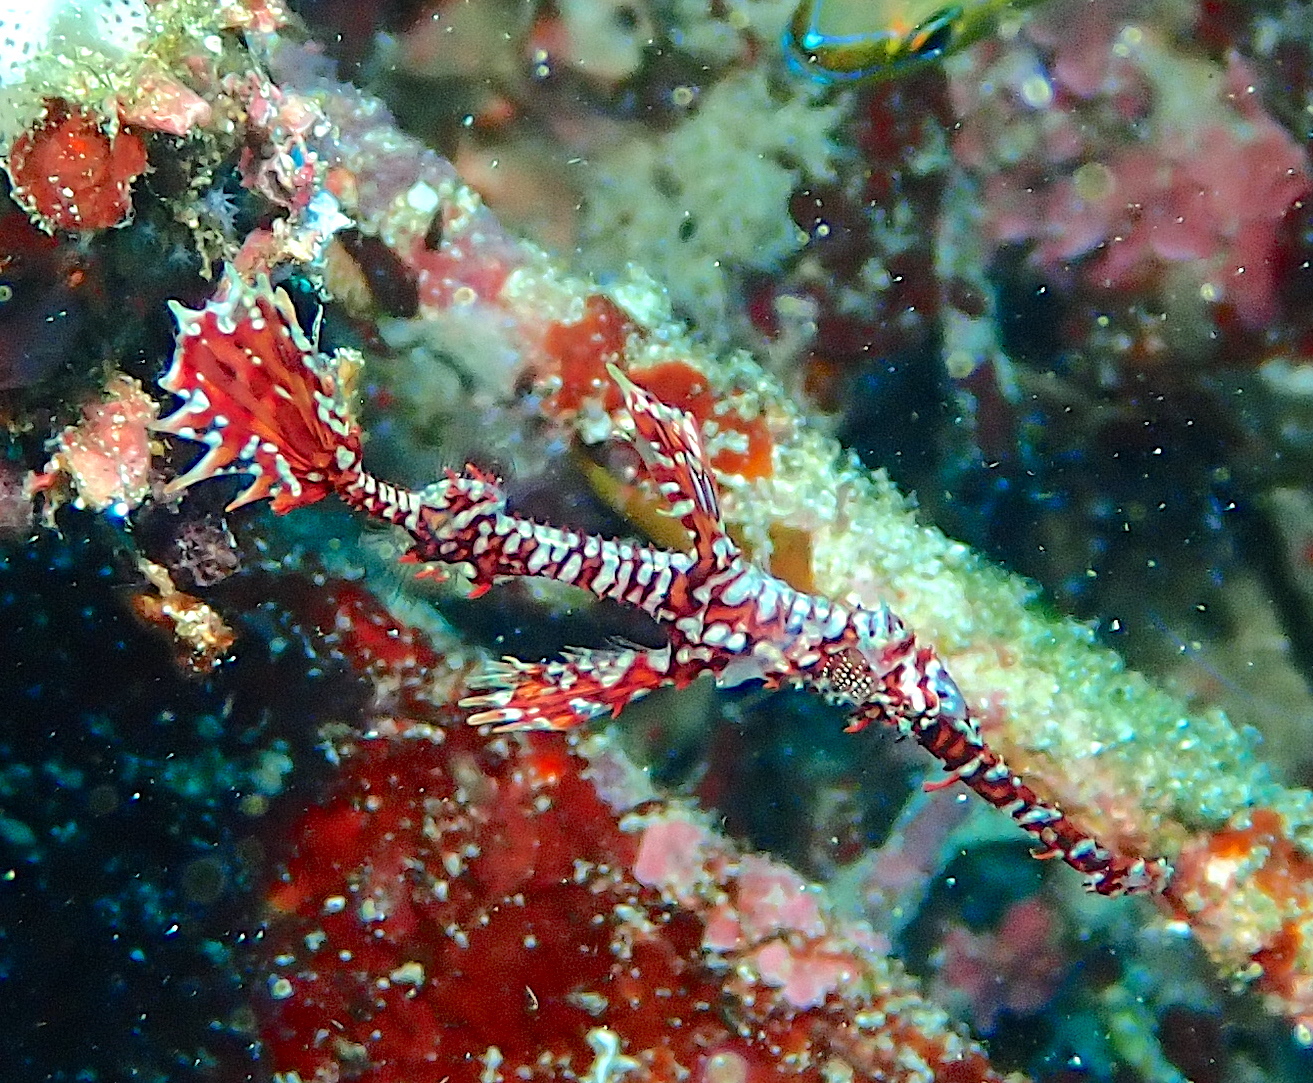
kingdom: Animalia
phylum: Chordata
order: Syngnathiformes
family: Solenostomidae
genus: Solenostomus
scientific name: Solenostomus paradoxus
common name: Ghost pipefish
